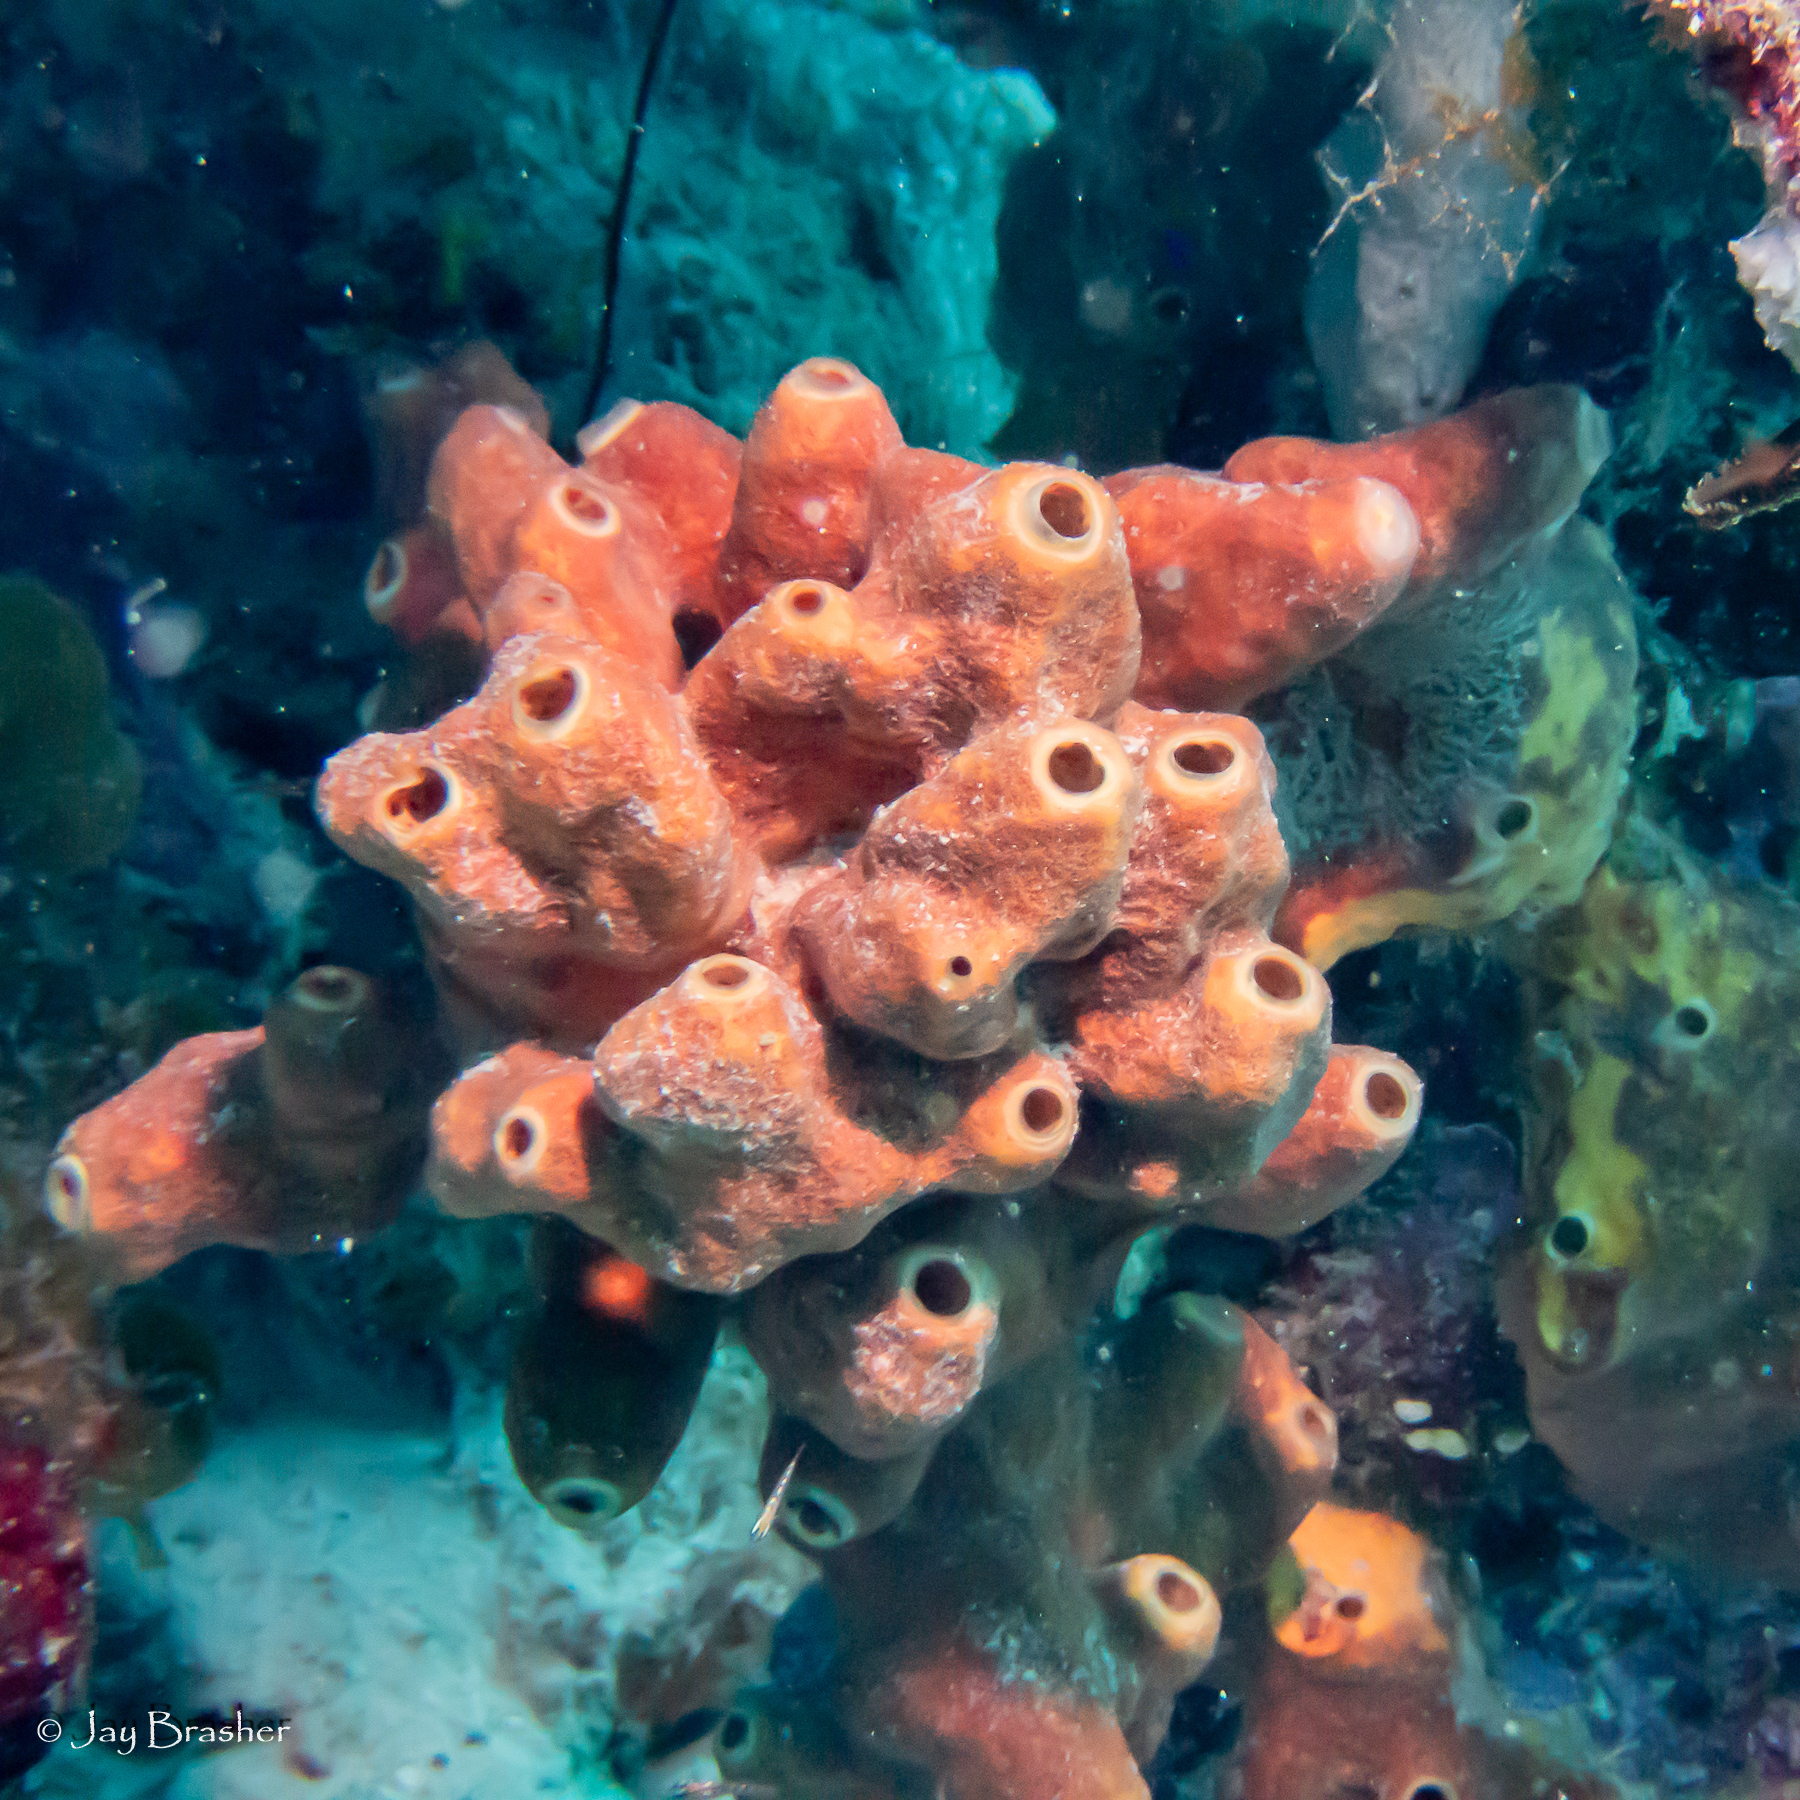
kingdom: Animalia
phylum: Porifera
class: Demospongiae
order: Axinellida
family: Raspailiidae
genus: Ectyoplasia
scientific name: Ectyoplasia ferox
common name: Brown encrusting octopus sponge
